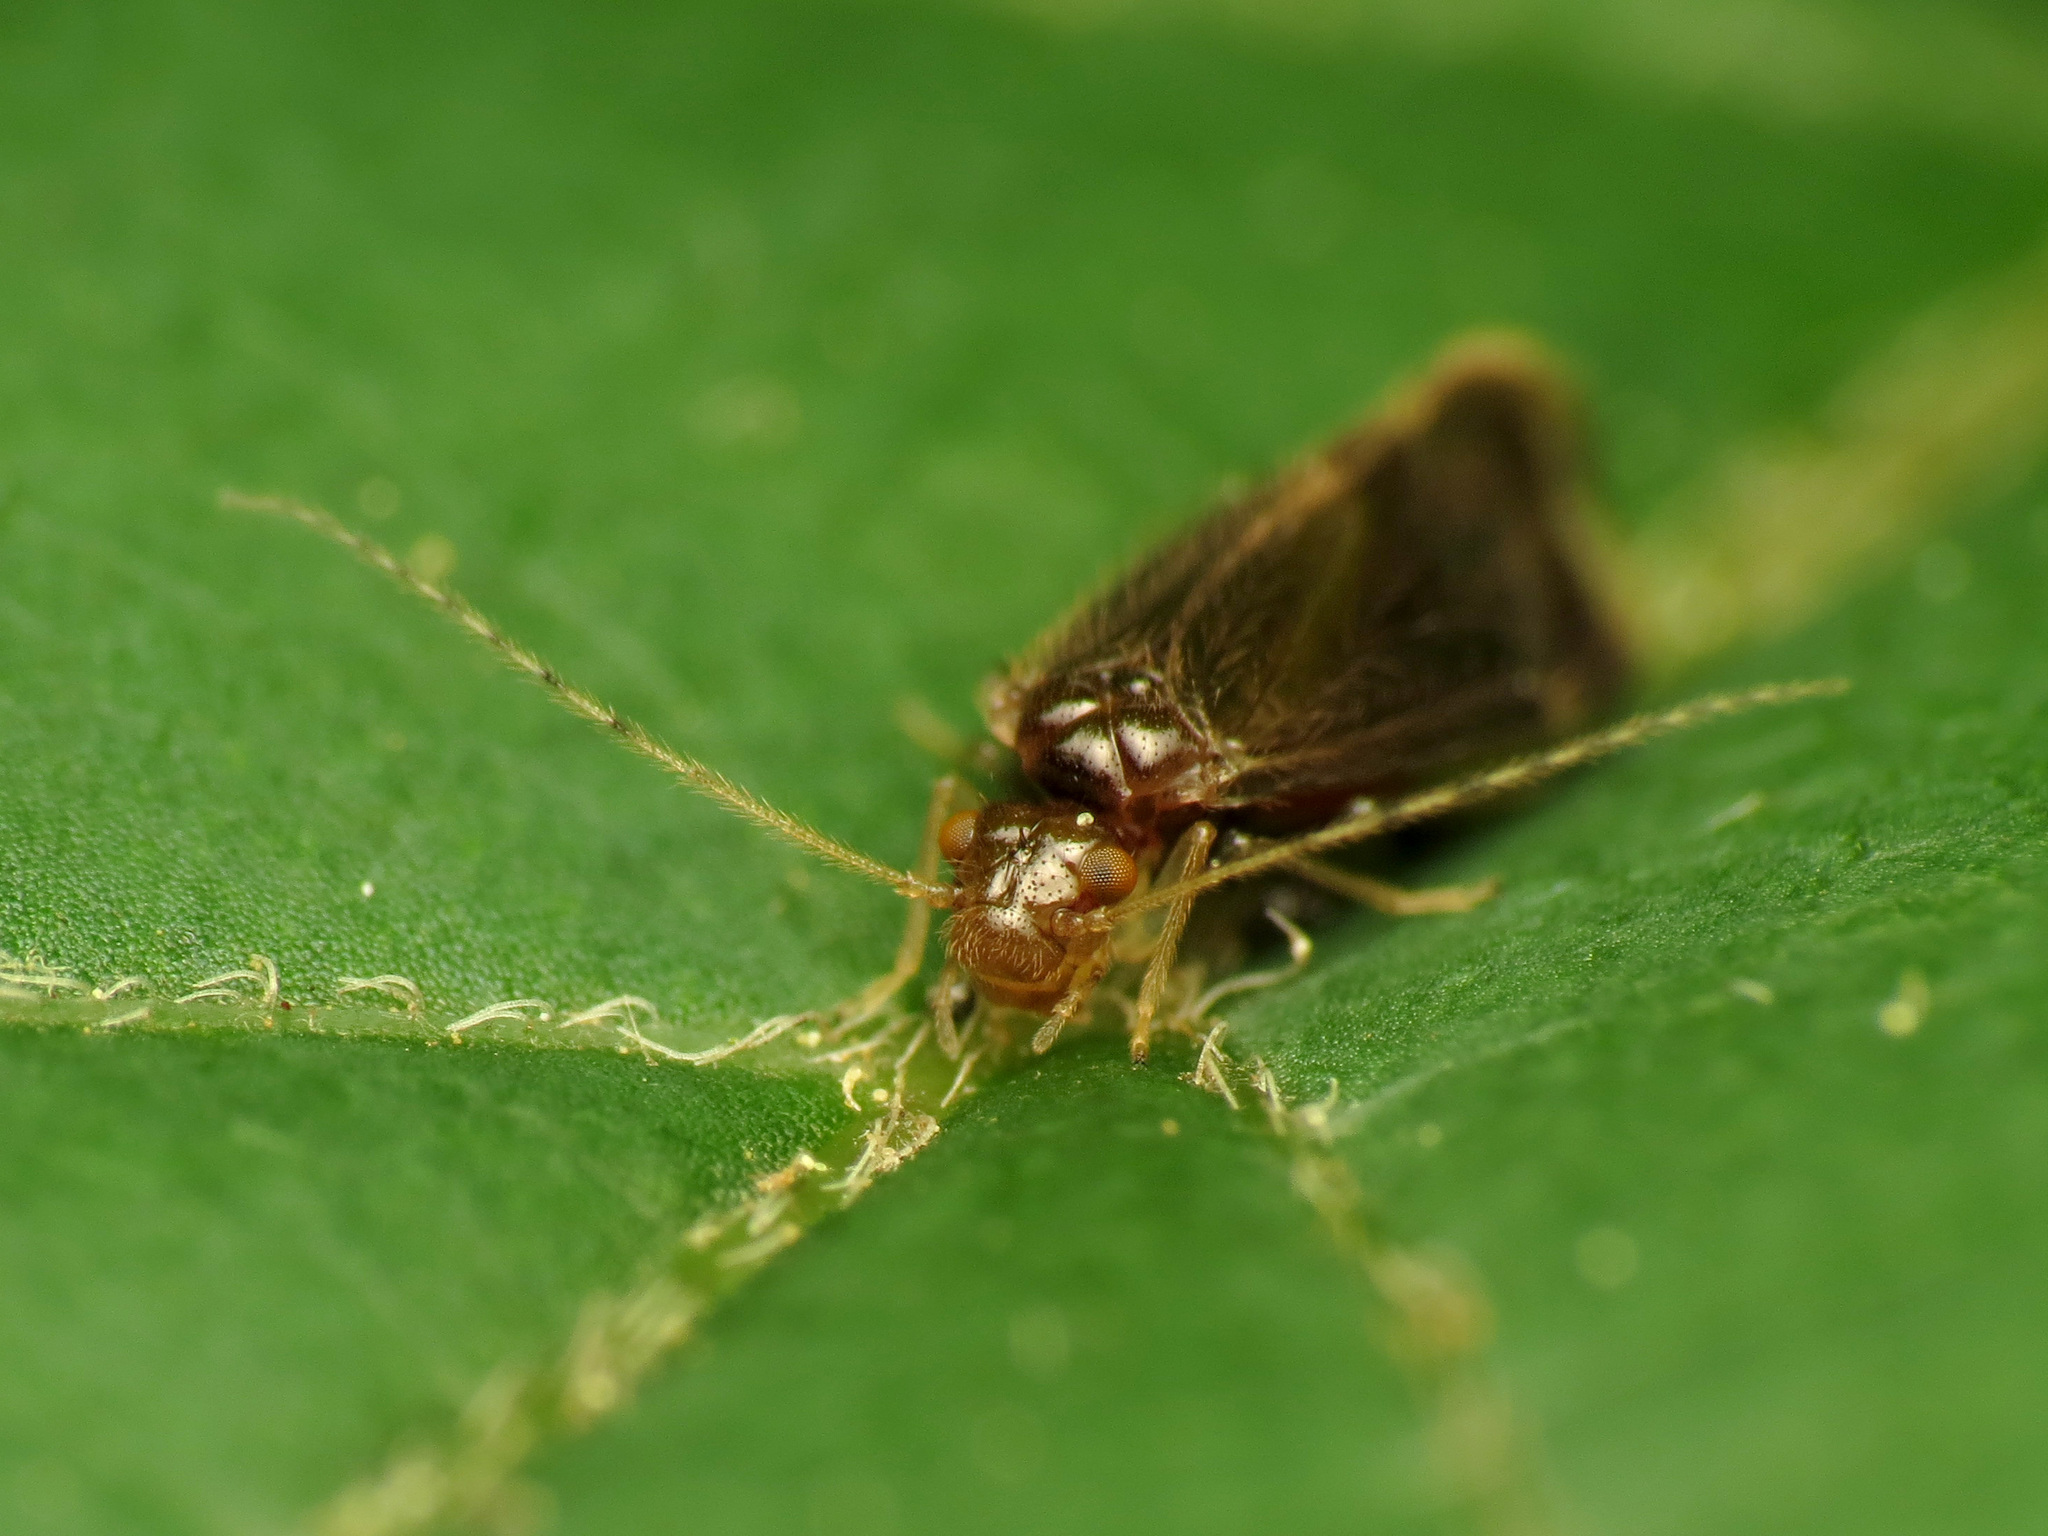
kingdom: Animalia
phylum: Arthropoda
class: Insecta
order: Psocodea
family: Amphipsocidae
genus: Polypsocus
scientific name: Polypsocus corruptus
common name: Corrupt barklouse
